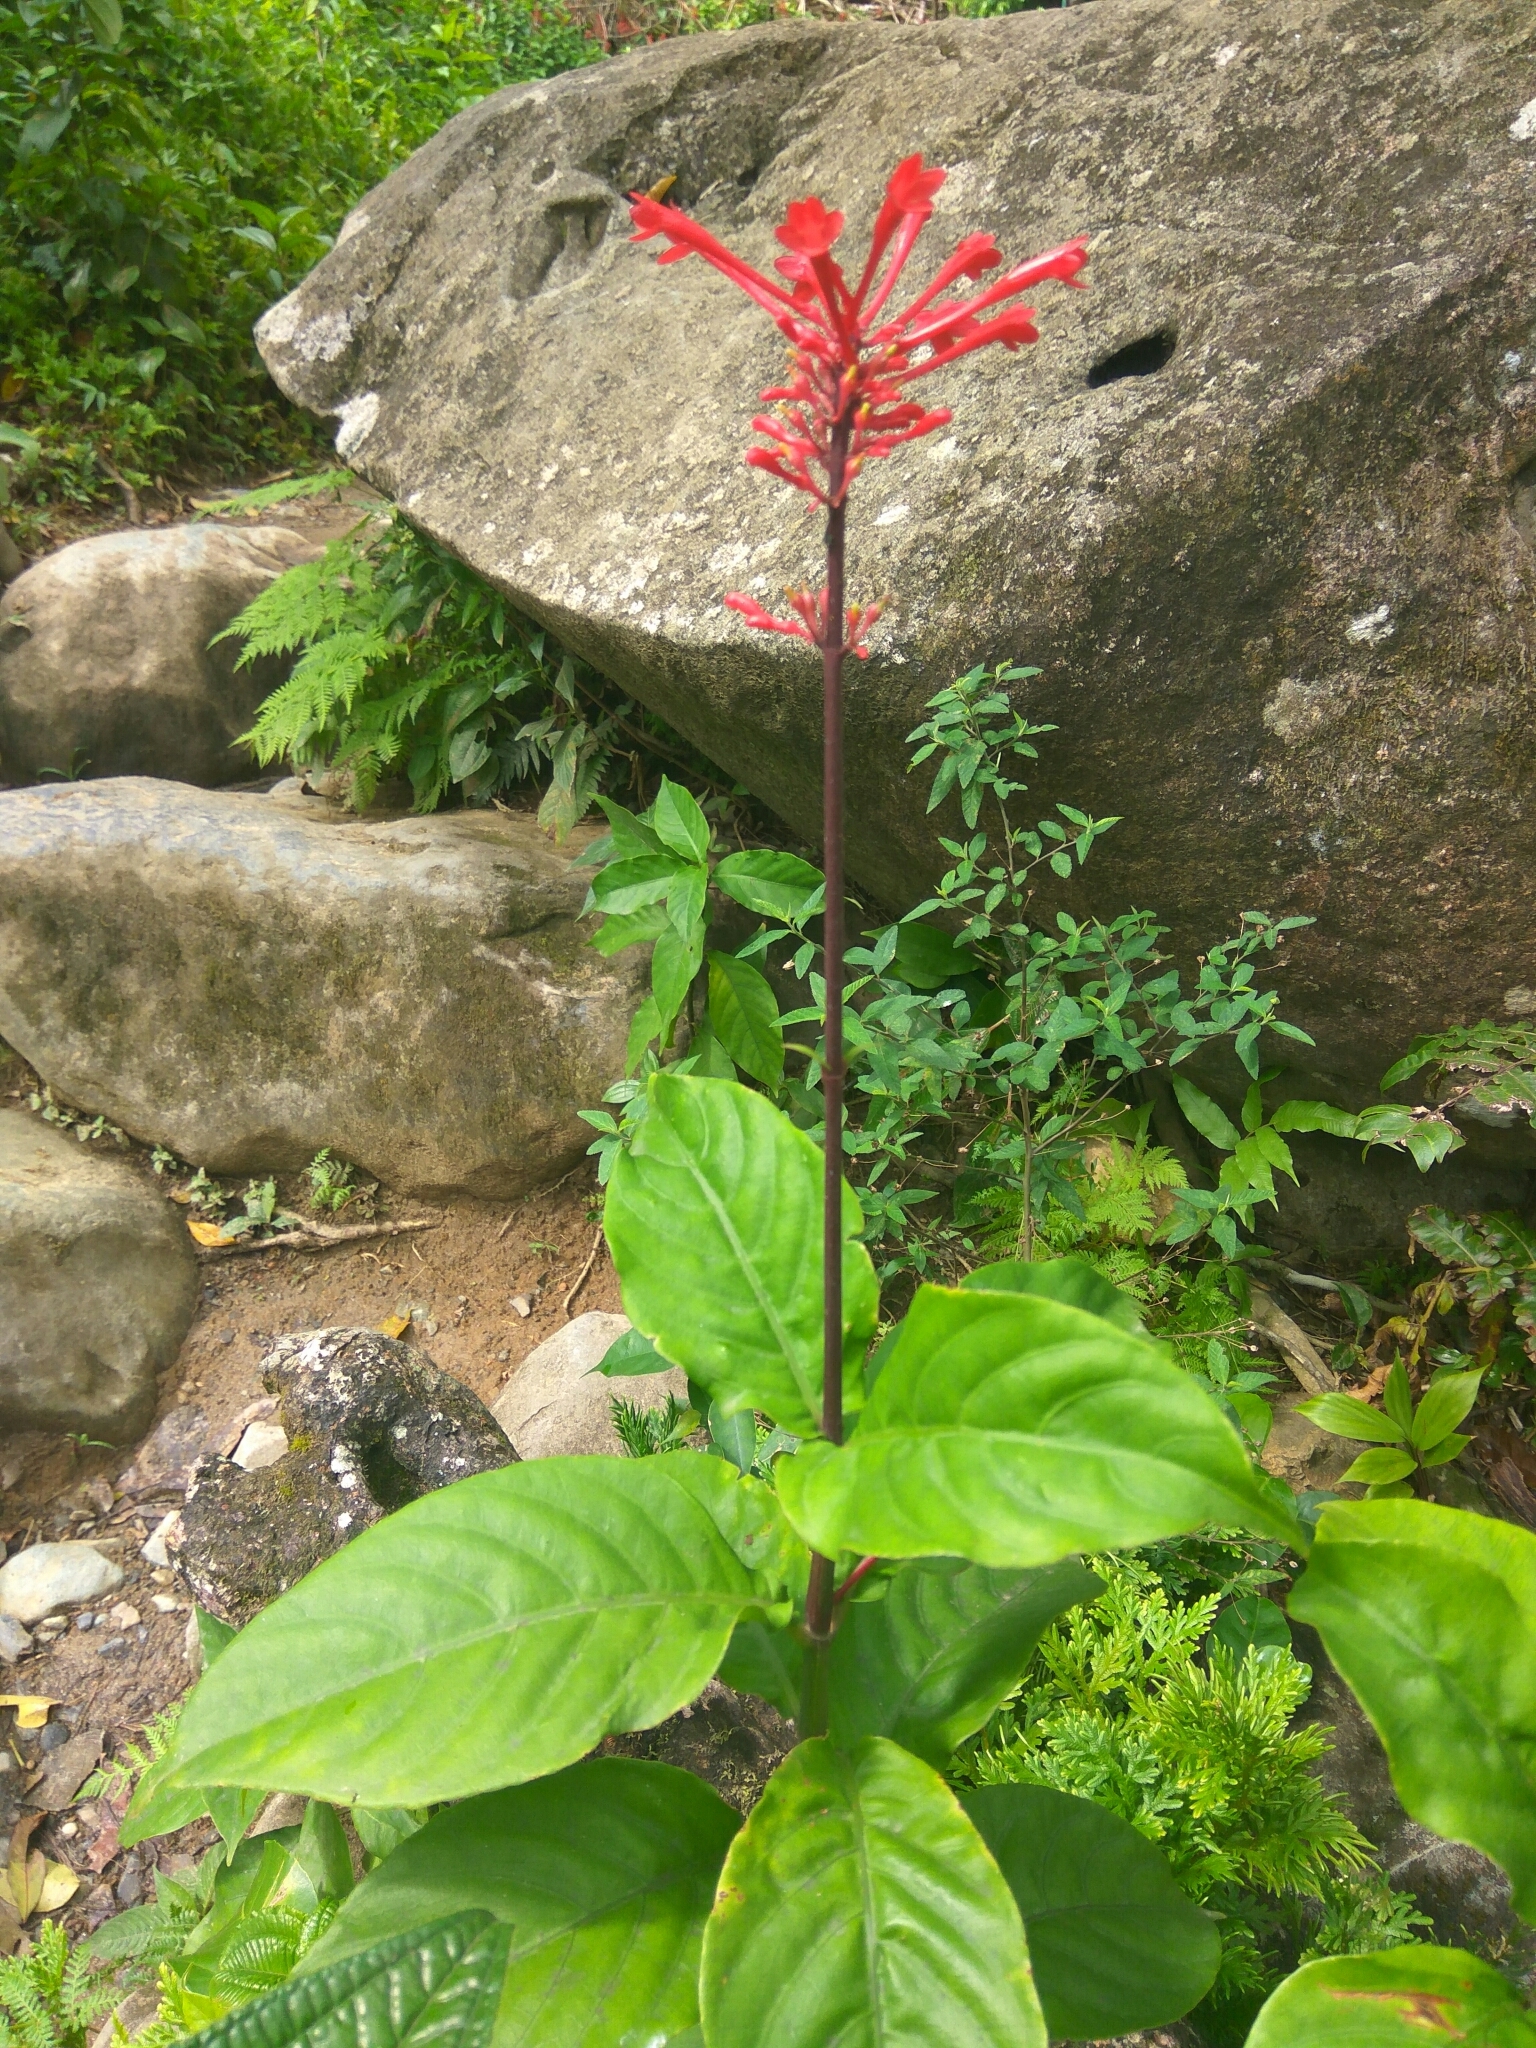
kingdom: Plantae
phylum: Tracheophyta
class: Magnoliopsida
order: Lamiales
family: Acanthaceae
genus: Odontonema
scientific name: Odontonema cuspidatum
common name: Mottled toothedthread
